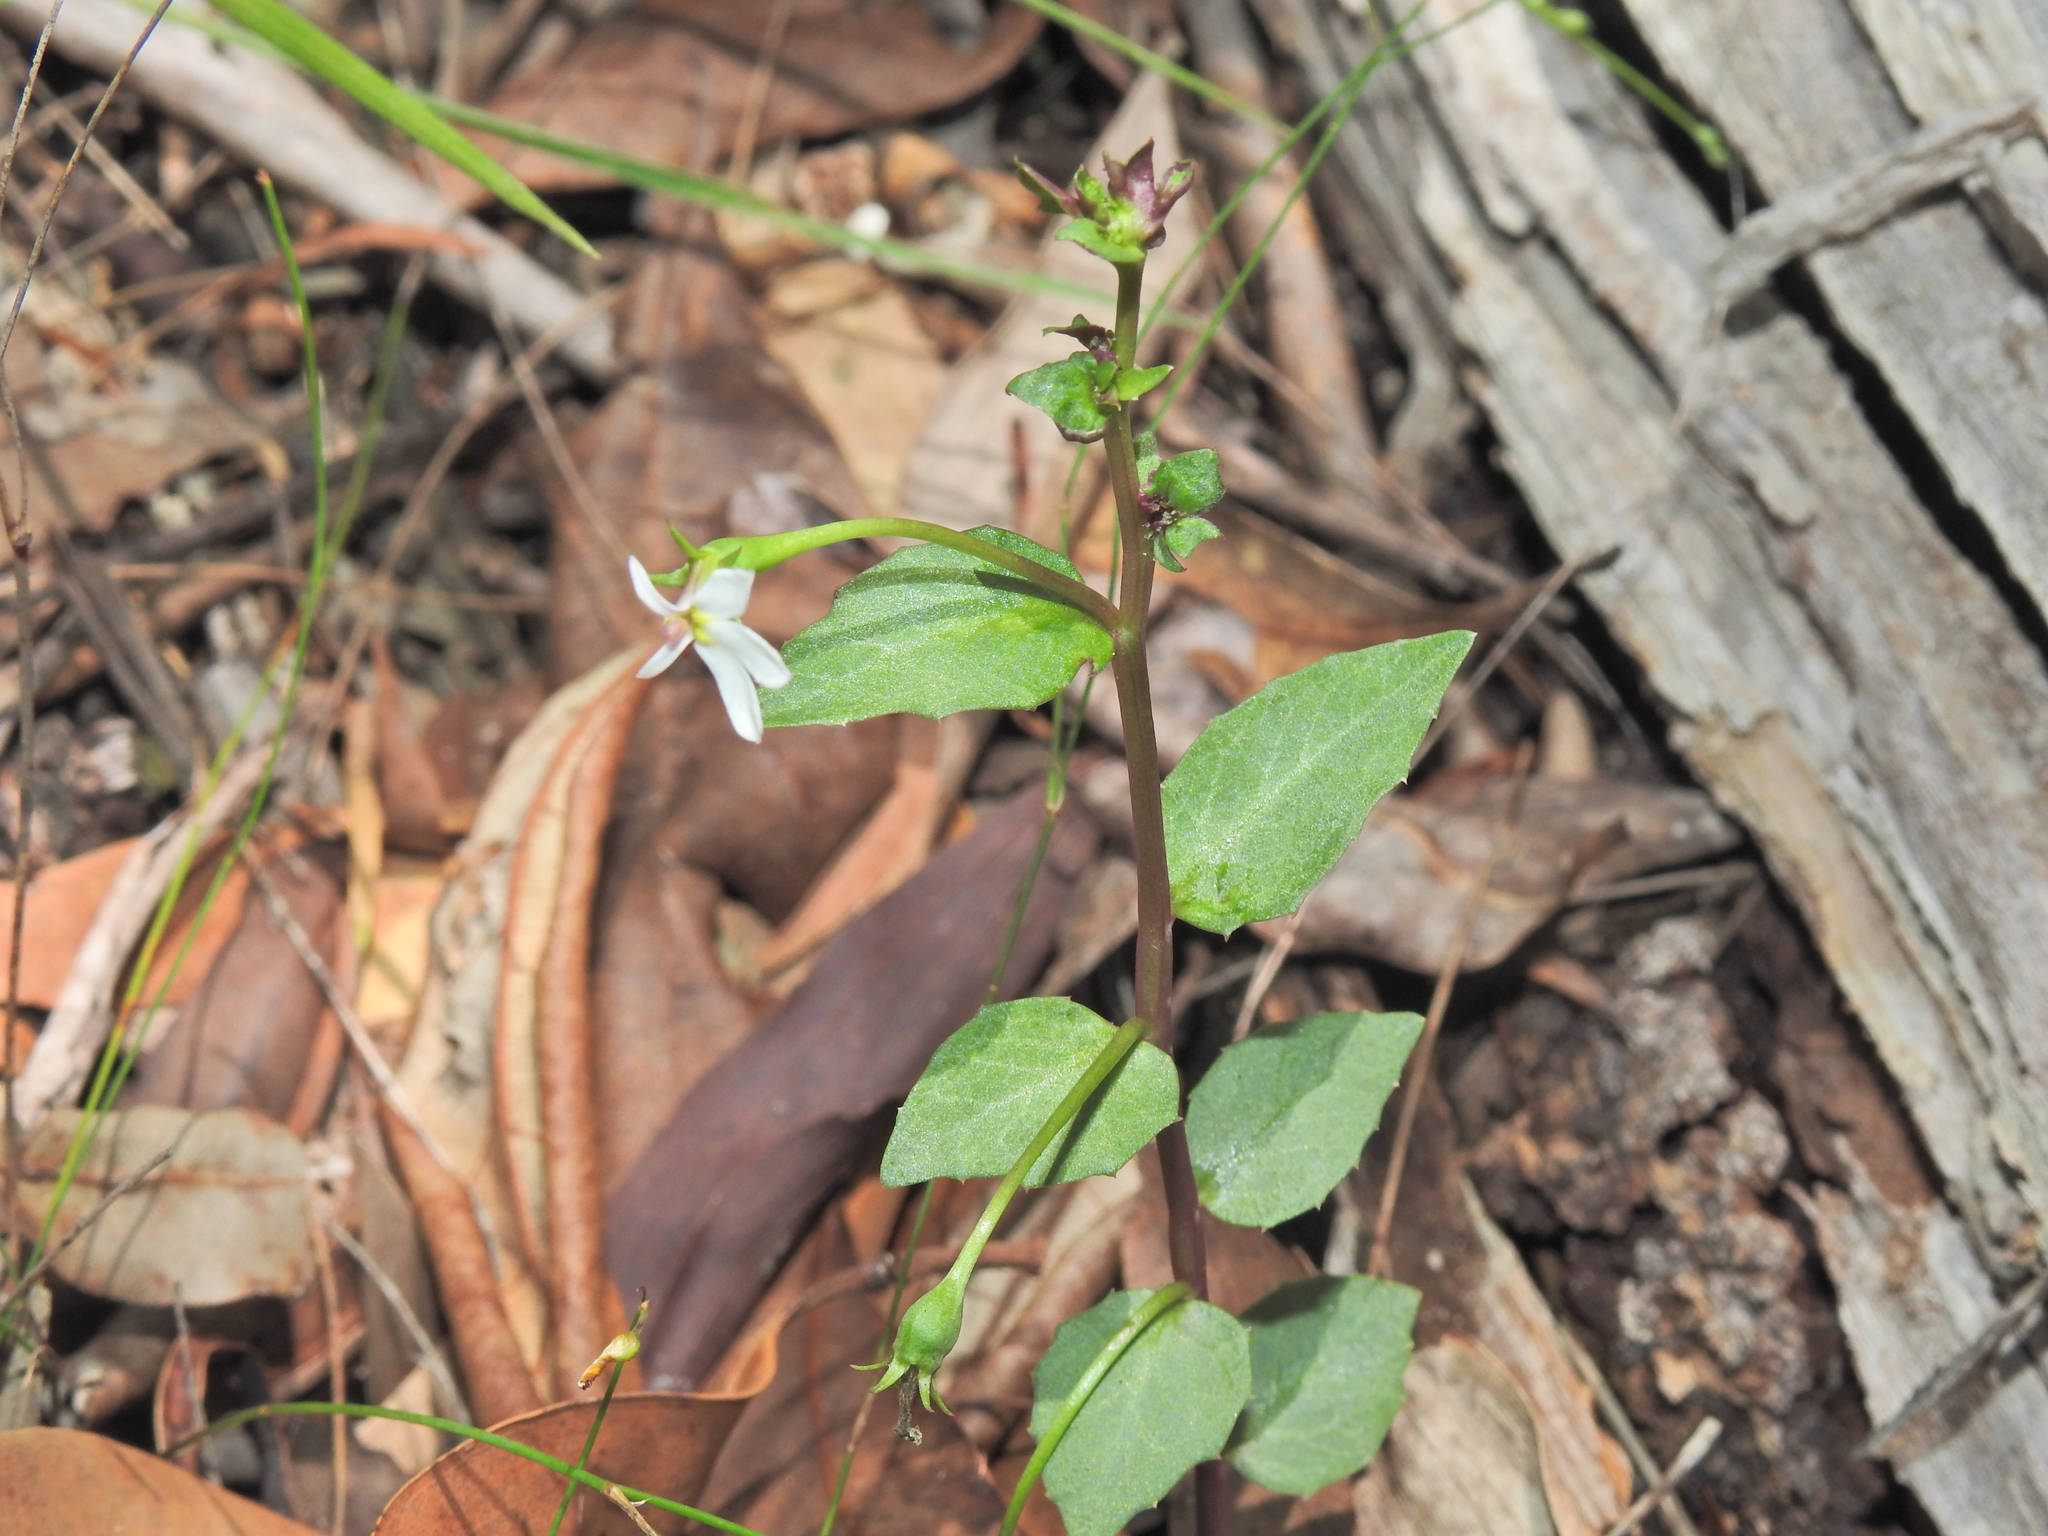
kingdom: Plantae
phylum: Tracheophyta
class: Magnoliopsida
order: Asterales
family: Campanulaceae
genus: Lobelia
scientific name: Lobelia purpurascens
